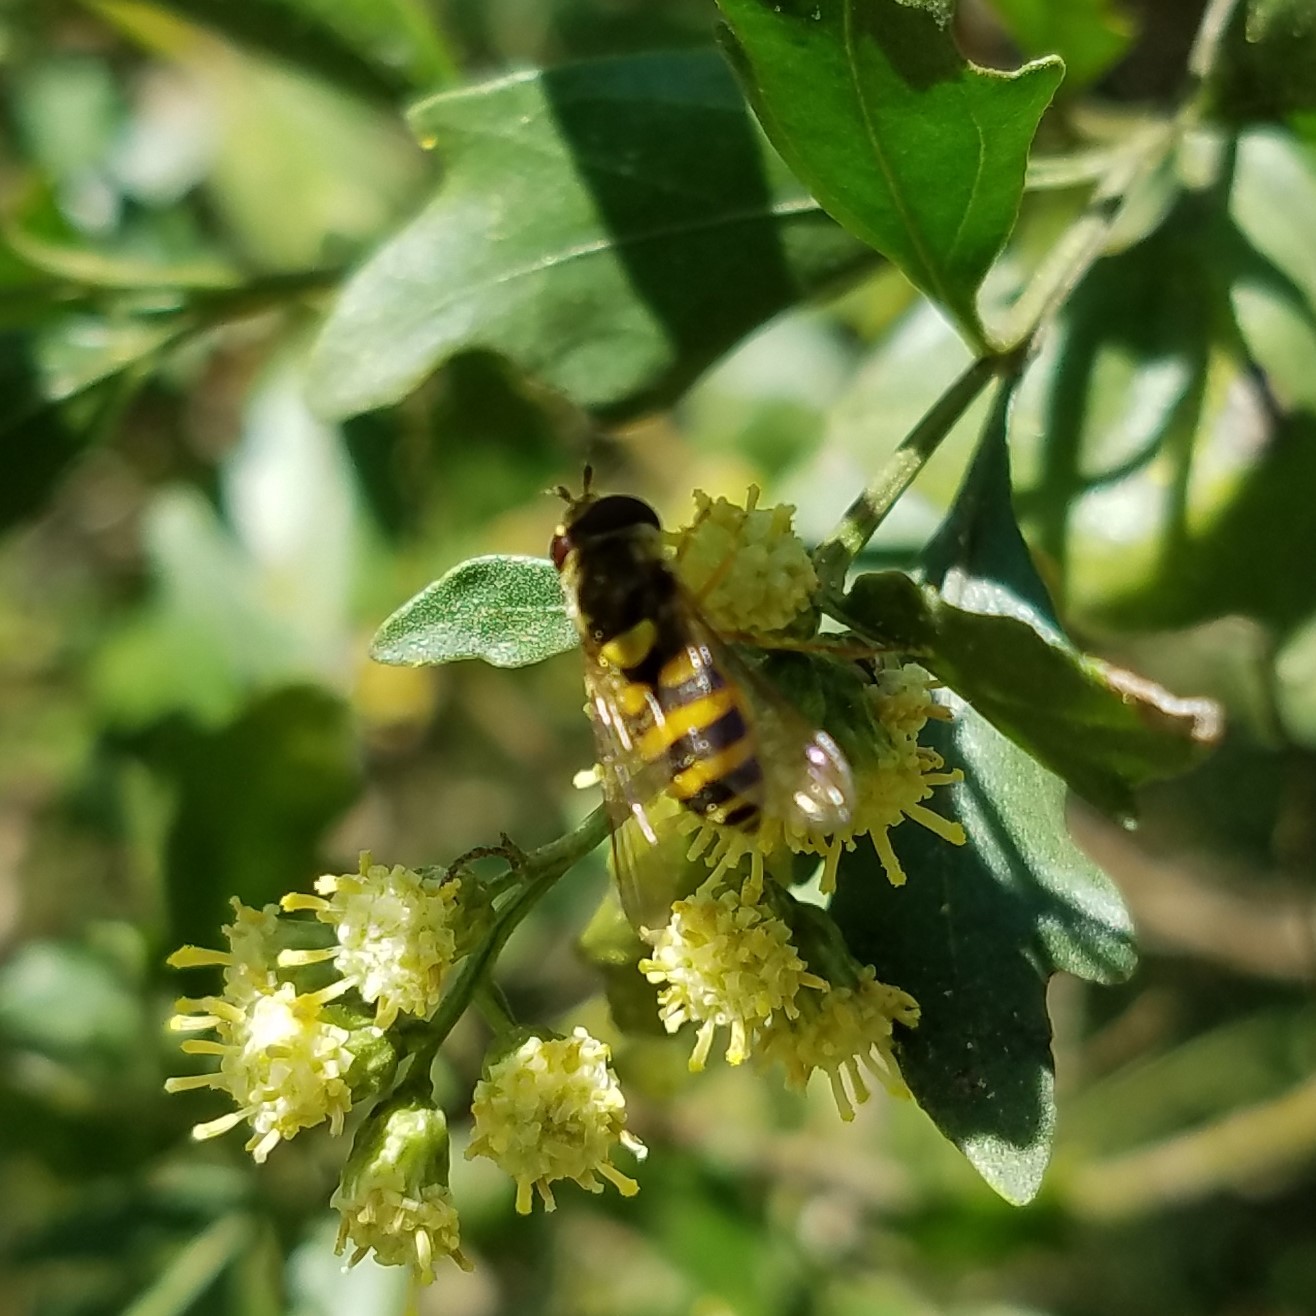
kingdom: Animalia
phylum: Arthropoda
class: Insecta
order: Diptera
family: Syrphidae
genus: Syrphus
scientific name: Syrphus
